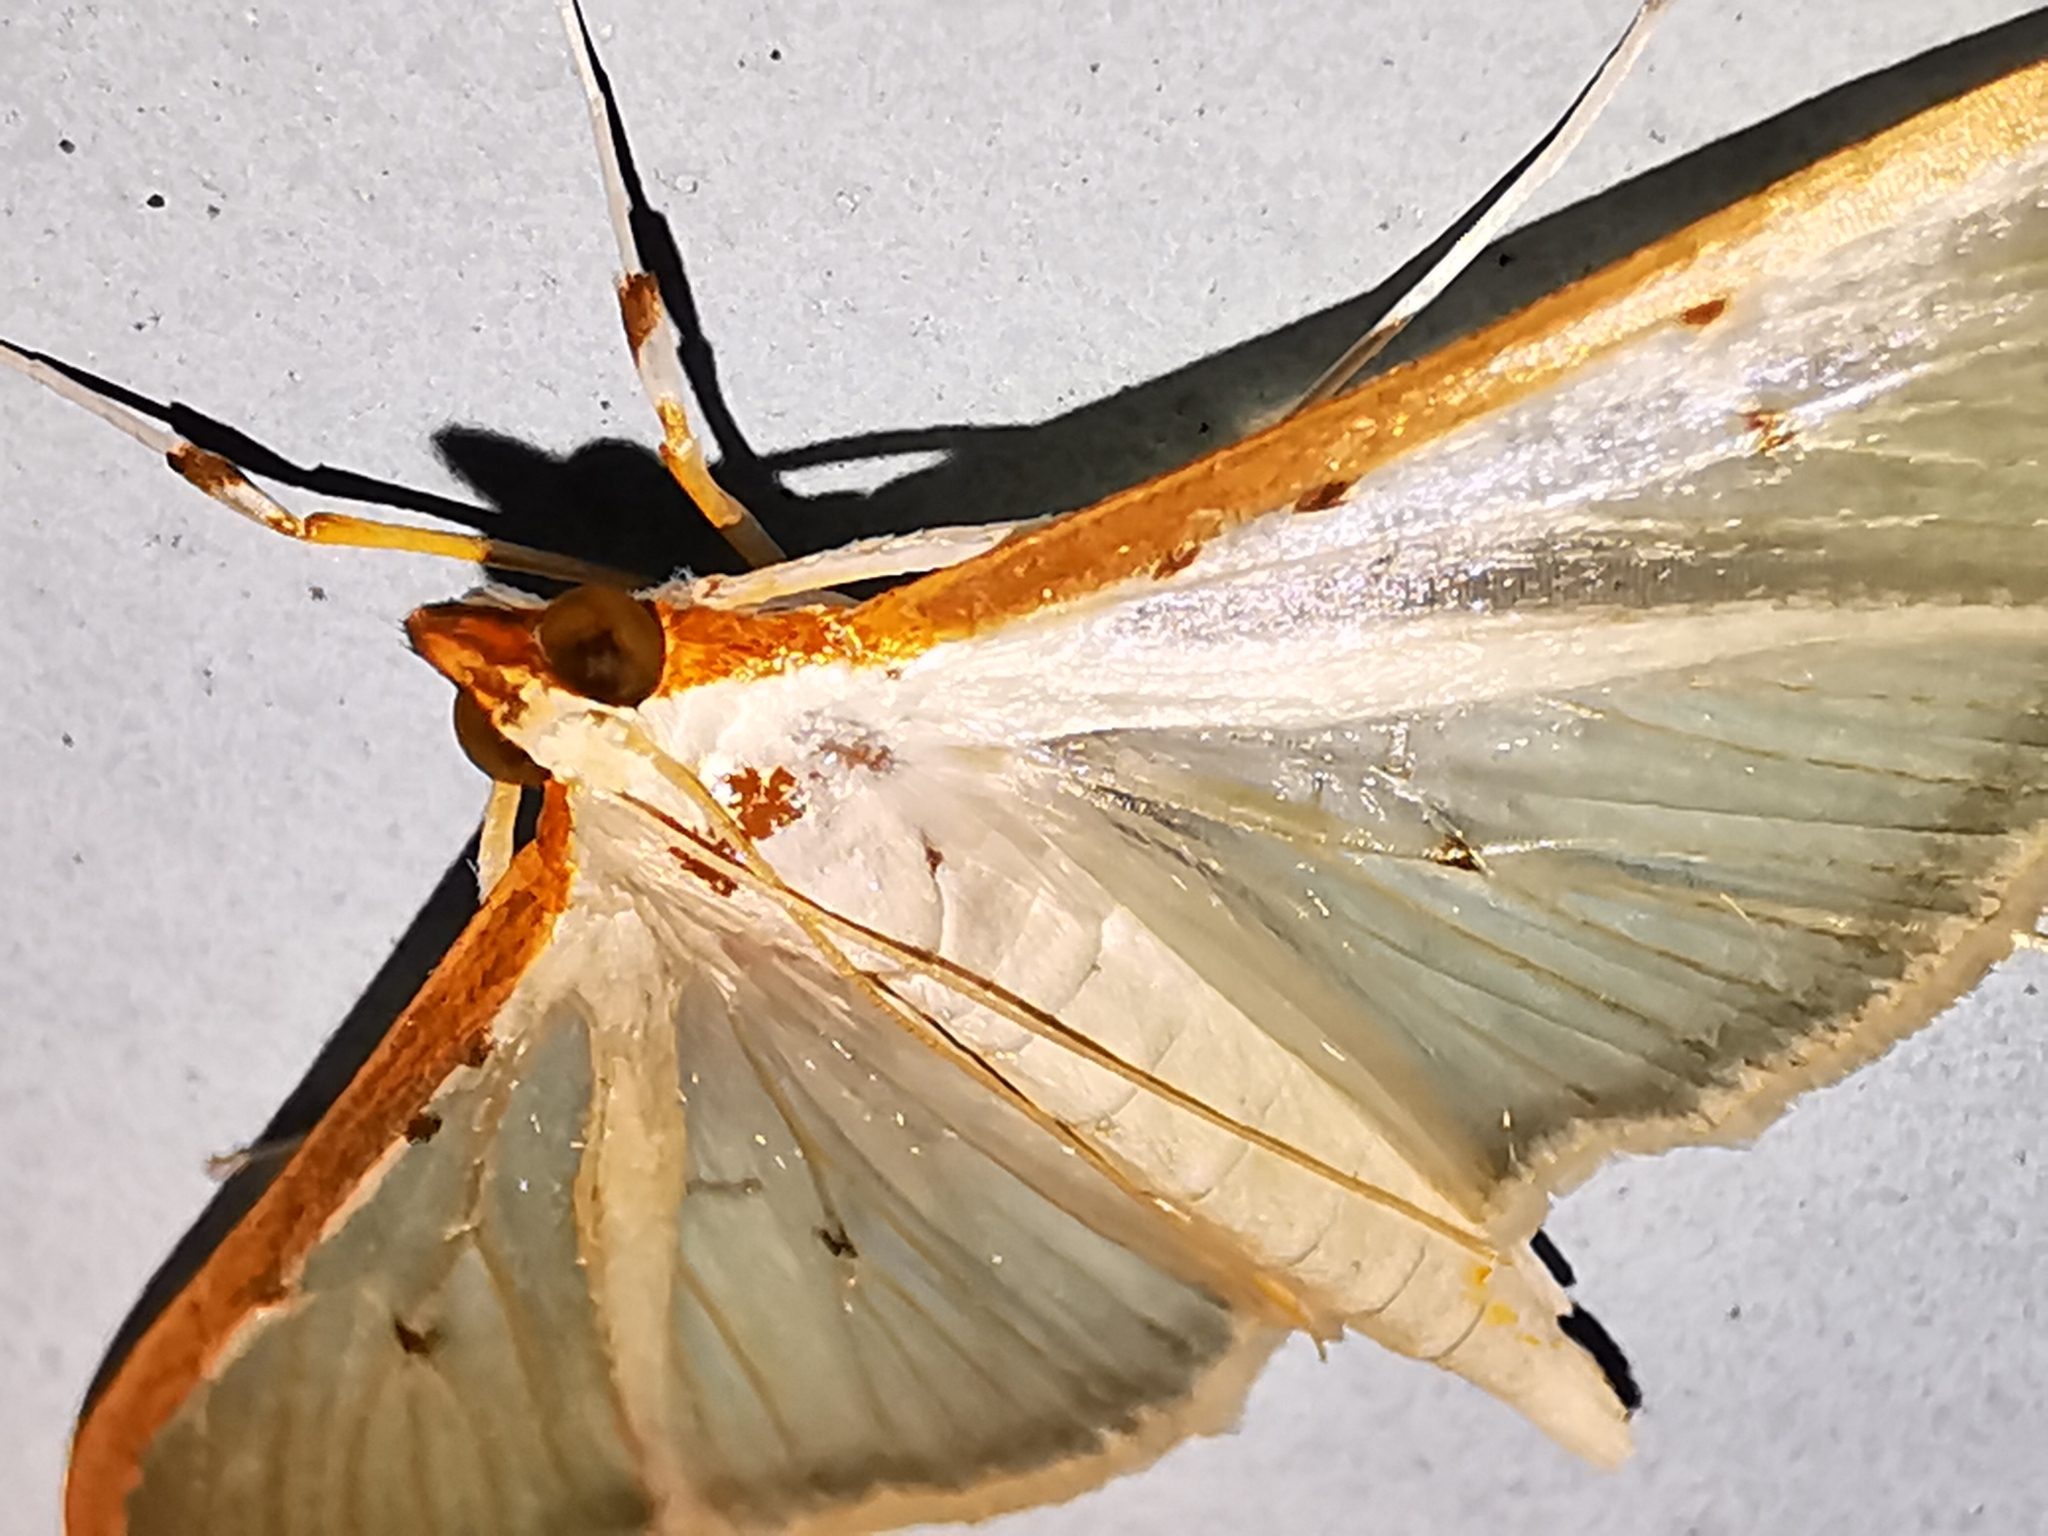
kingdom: Animalia
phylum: Arthropoda
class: Insecta
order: Lepidoptera
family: Crambidae
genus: Palpita
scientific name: Palpita quadristigmalis
